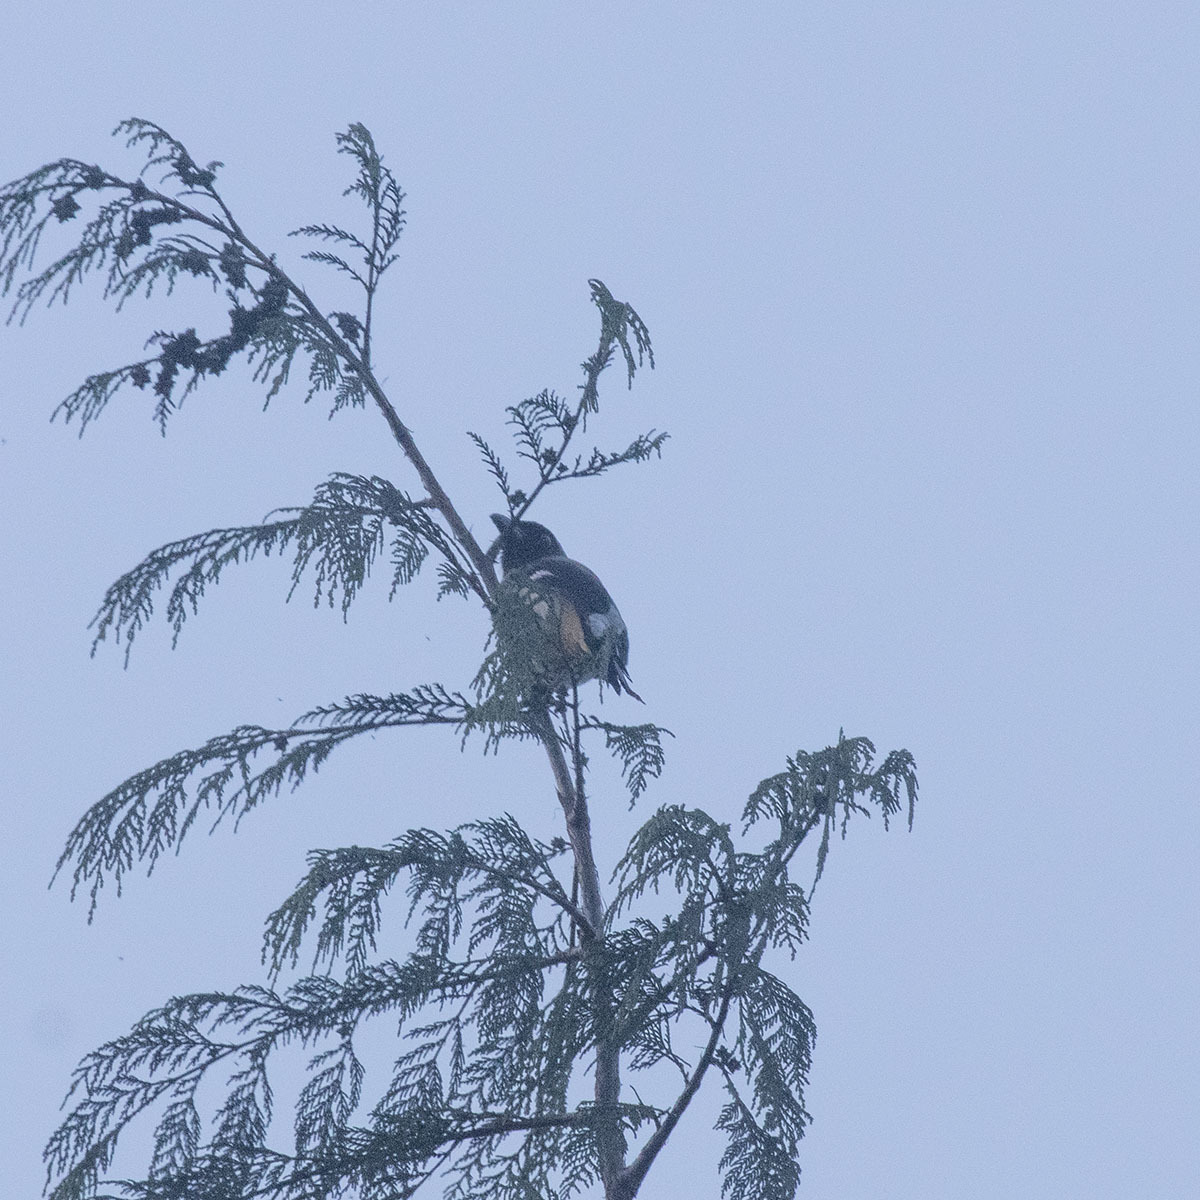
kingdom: Animalia
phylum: Chordata
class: Aves
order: Passeriformes
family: Corvidae
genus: Dendrocitta
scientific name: Dendrocitta formosae
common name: Grey treepie
